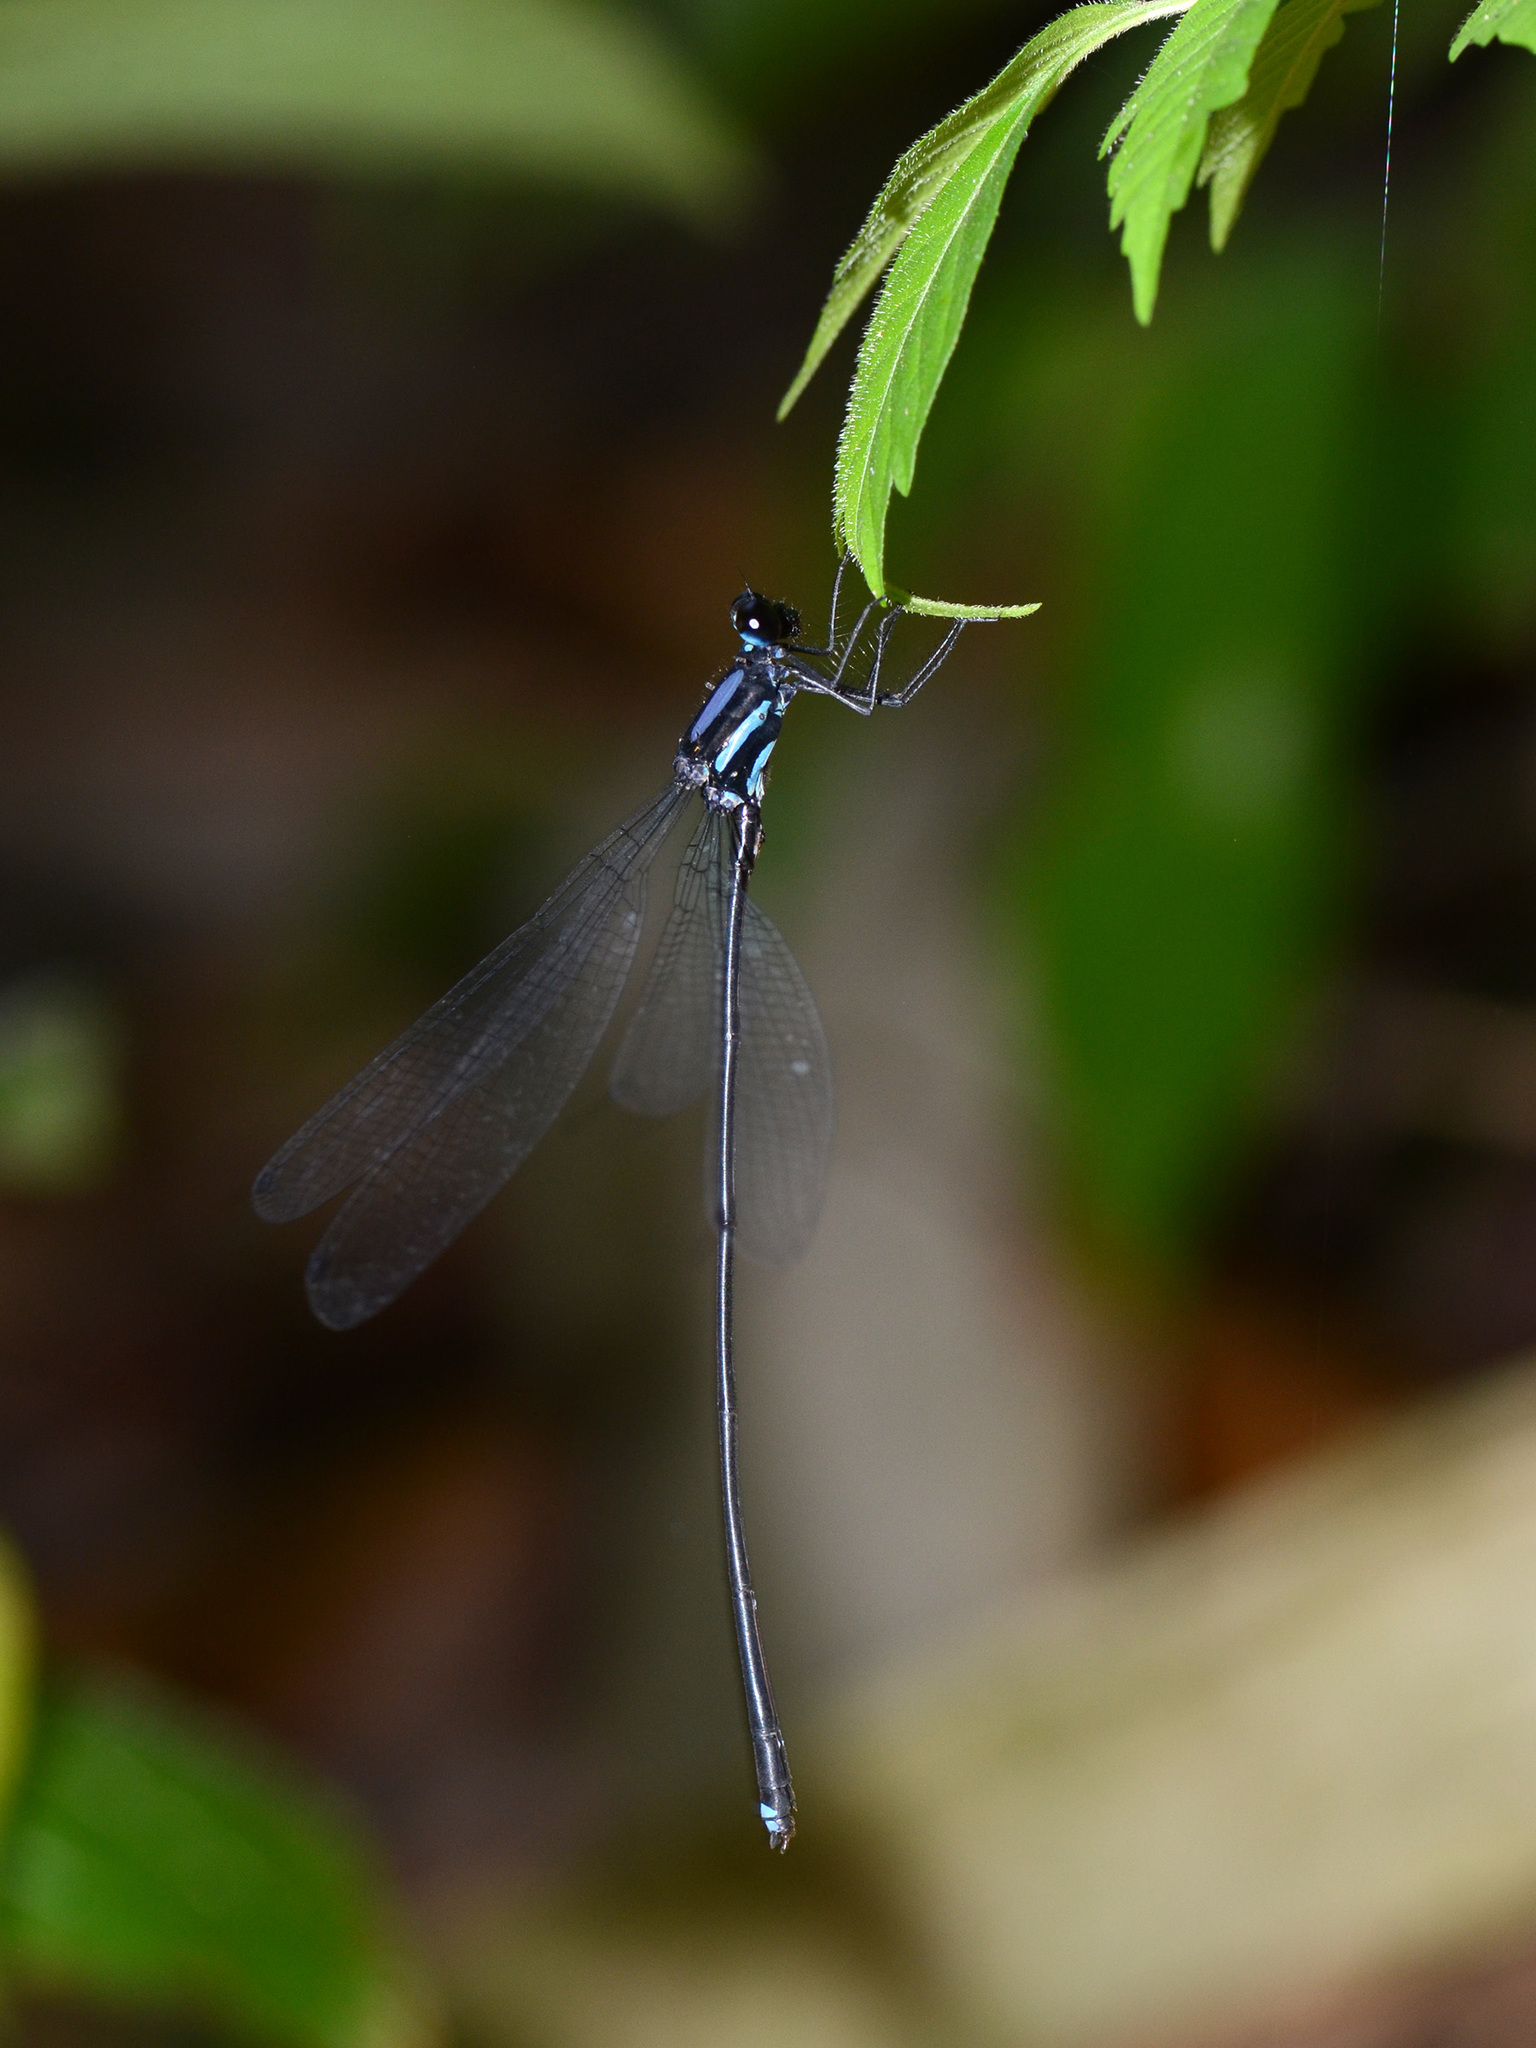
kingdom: Animalia
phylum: Arthropoda
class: Insecta
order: Odonata
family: Platycnemididae
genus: Indocnemis
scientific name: Indocnemis orang
